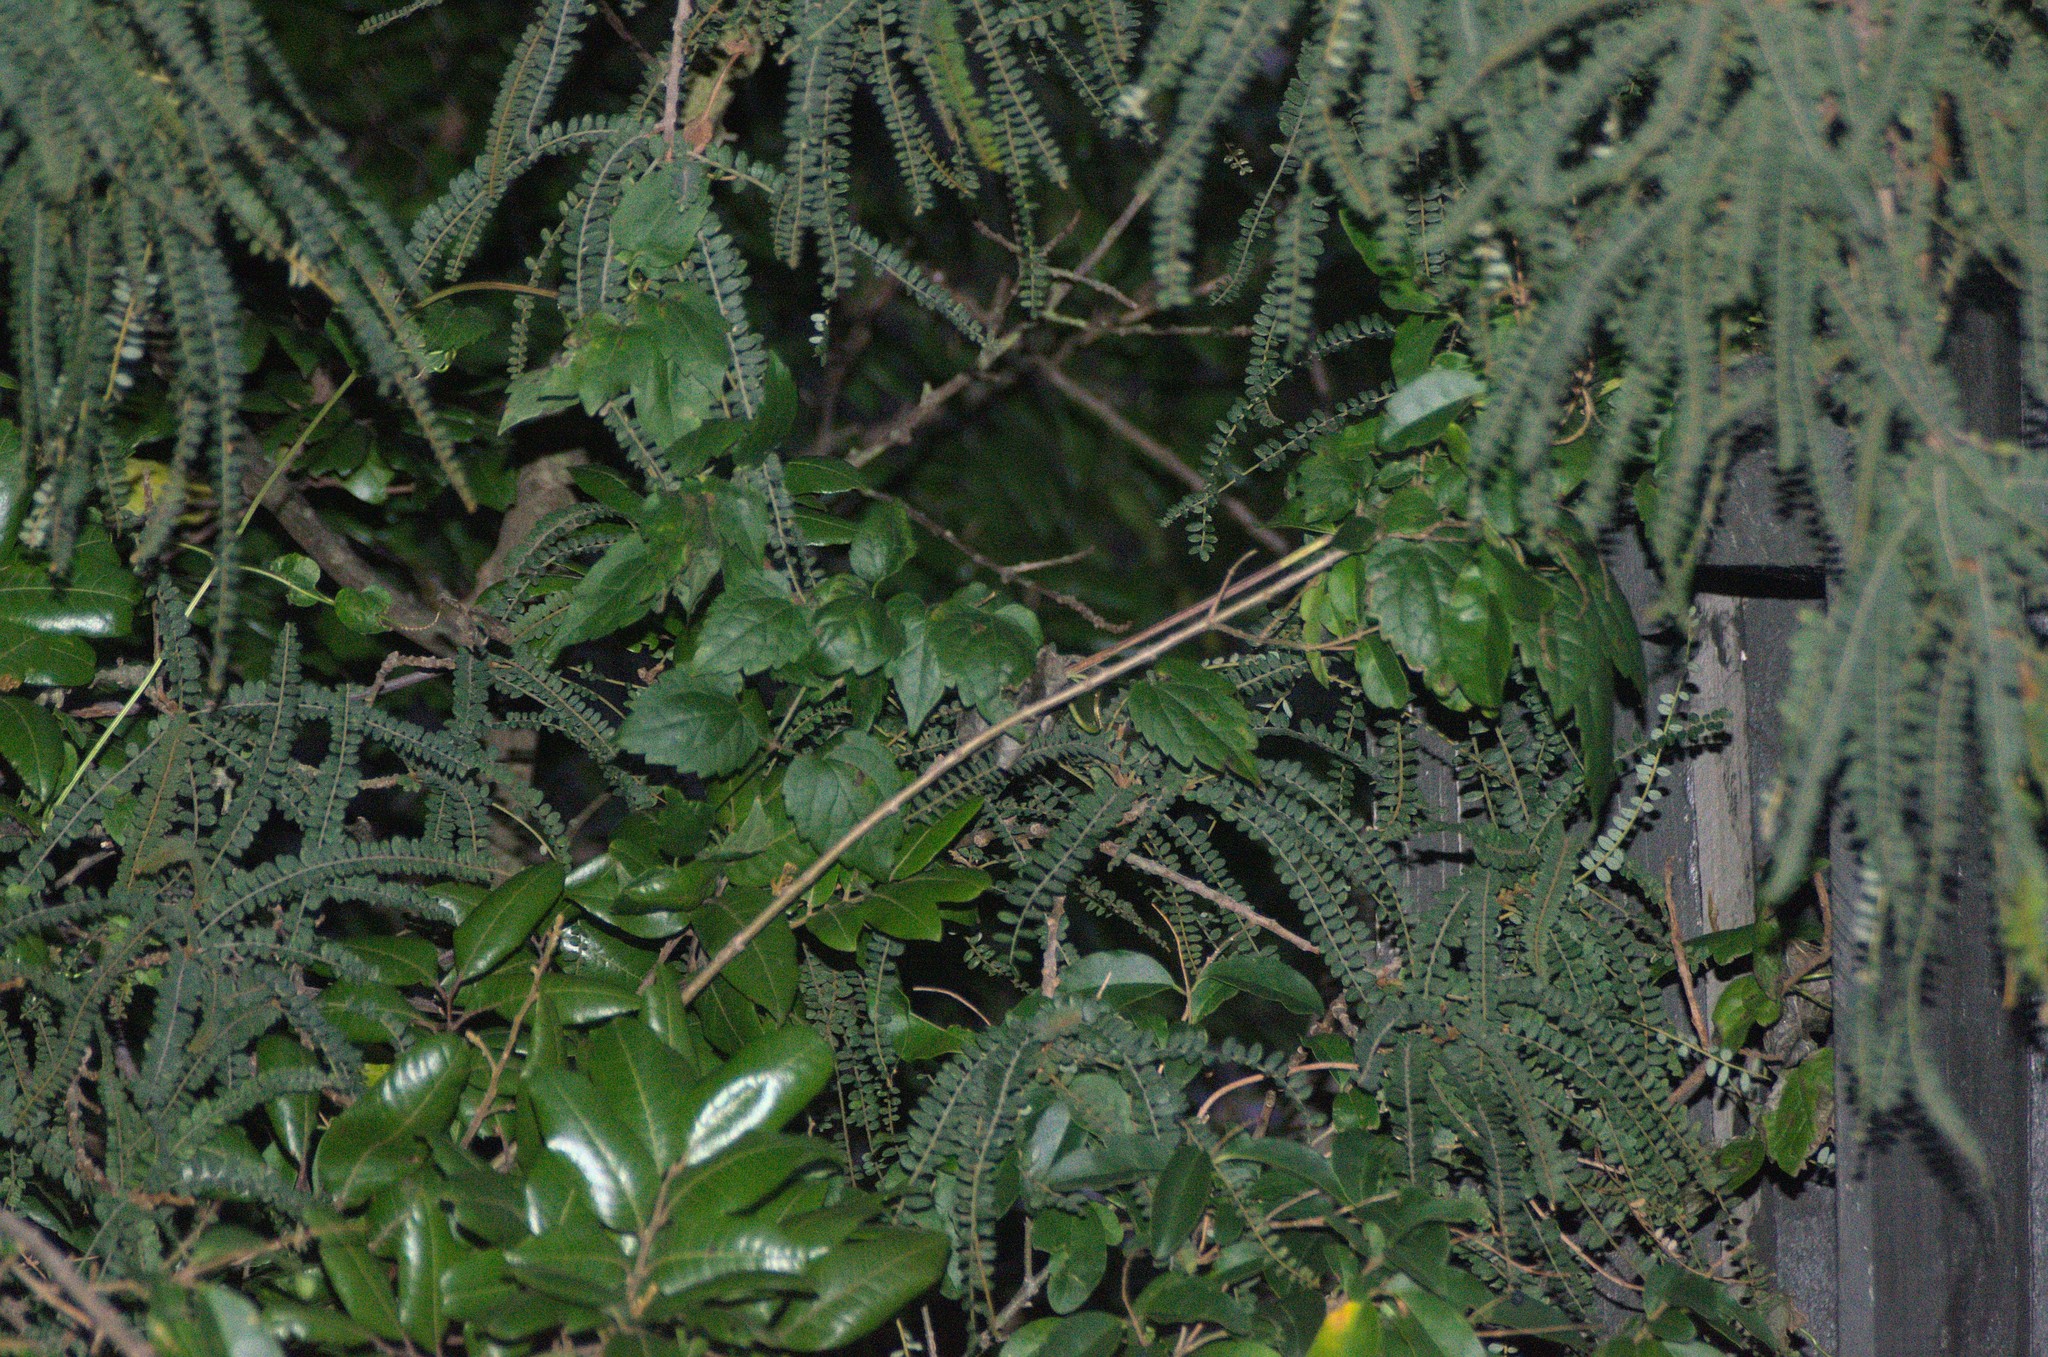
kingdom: Plantae
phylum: Tracheophyta
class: Magnoliopsida
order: Ranunculales
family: Ranunculaceae
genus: Clematis
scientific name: Clematis vitalba
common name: Evergreen clematis
